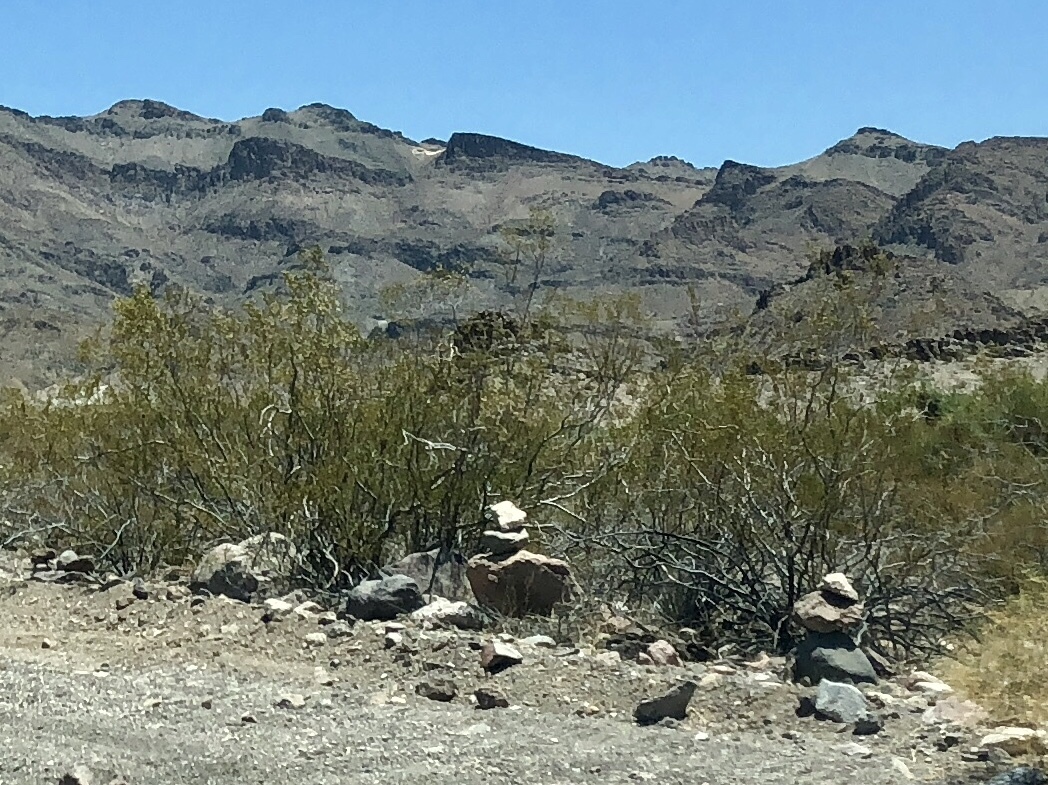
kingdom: Plantae
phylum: Tracheophyta
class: Magnoliopsida
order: Zygophyllales
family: Zygophyllaceae
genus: Larrea
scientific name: Larrea tridentata
